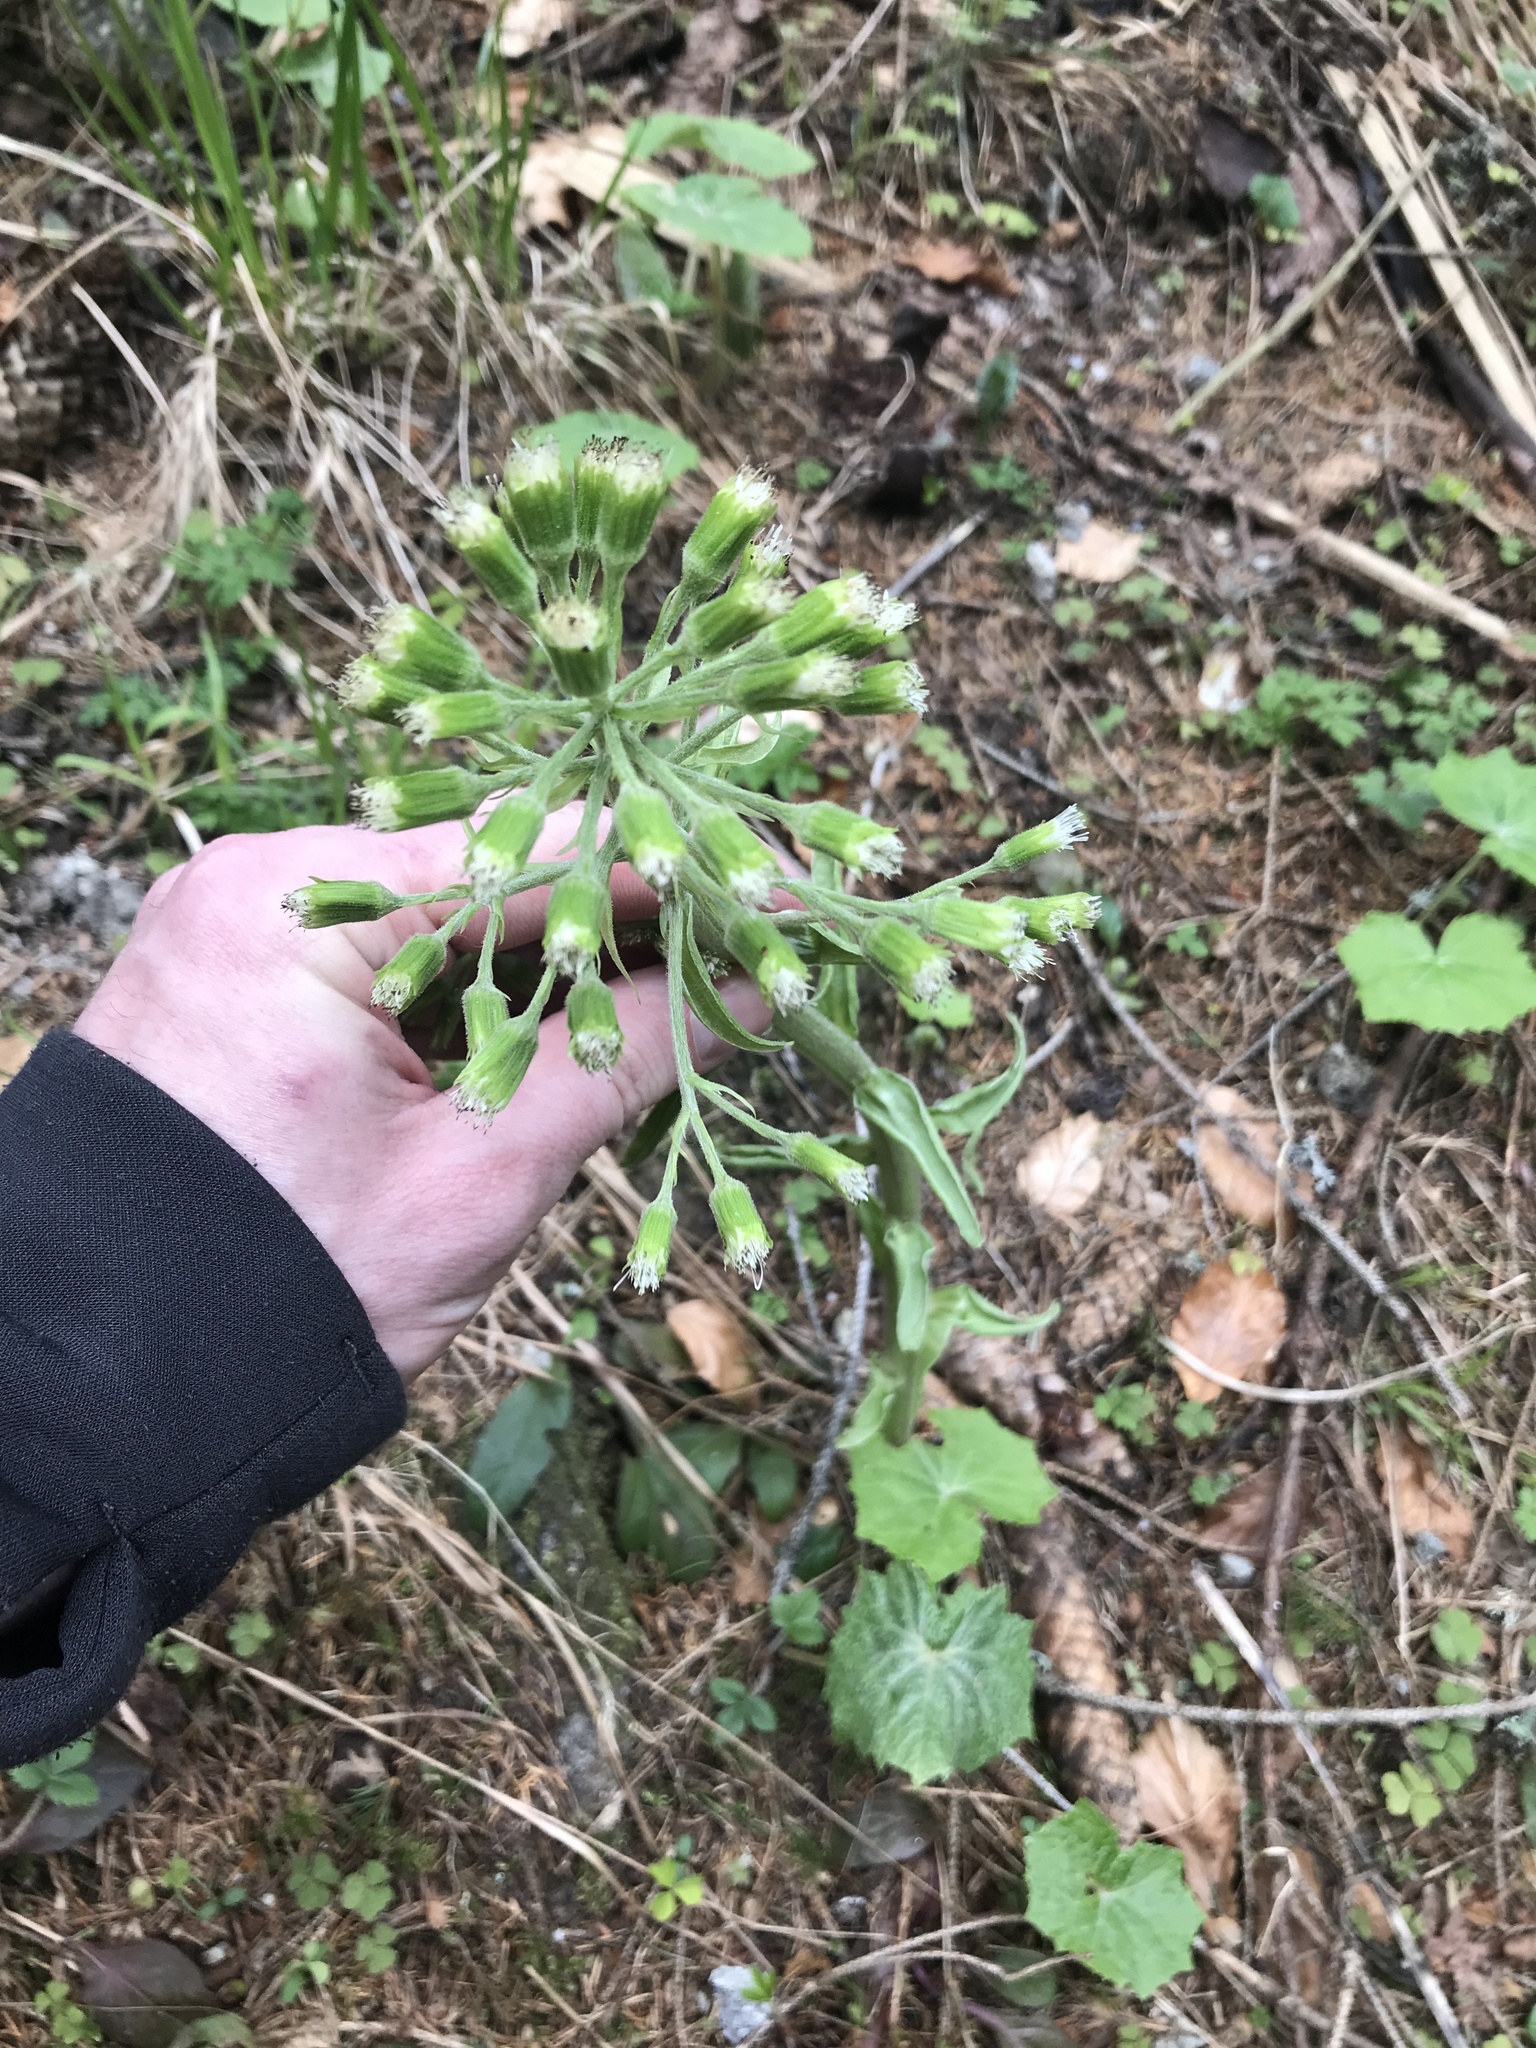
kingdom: Plantae
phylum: Tracheophyta
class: Magnoliopsida
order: Asterales
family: Asteraceae
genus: Petasites
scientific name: Petasites albus
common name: White butterbur
